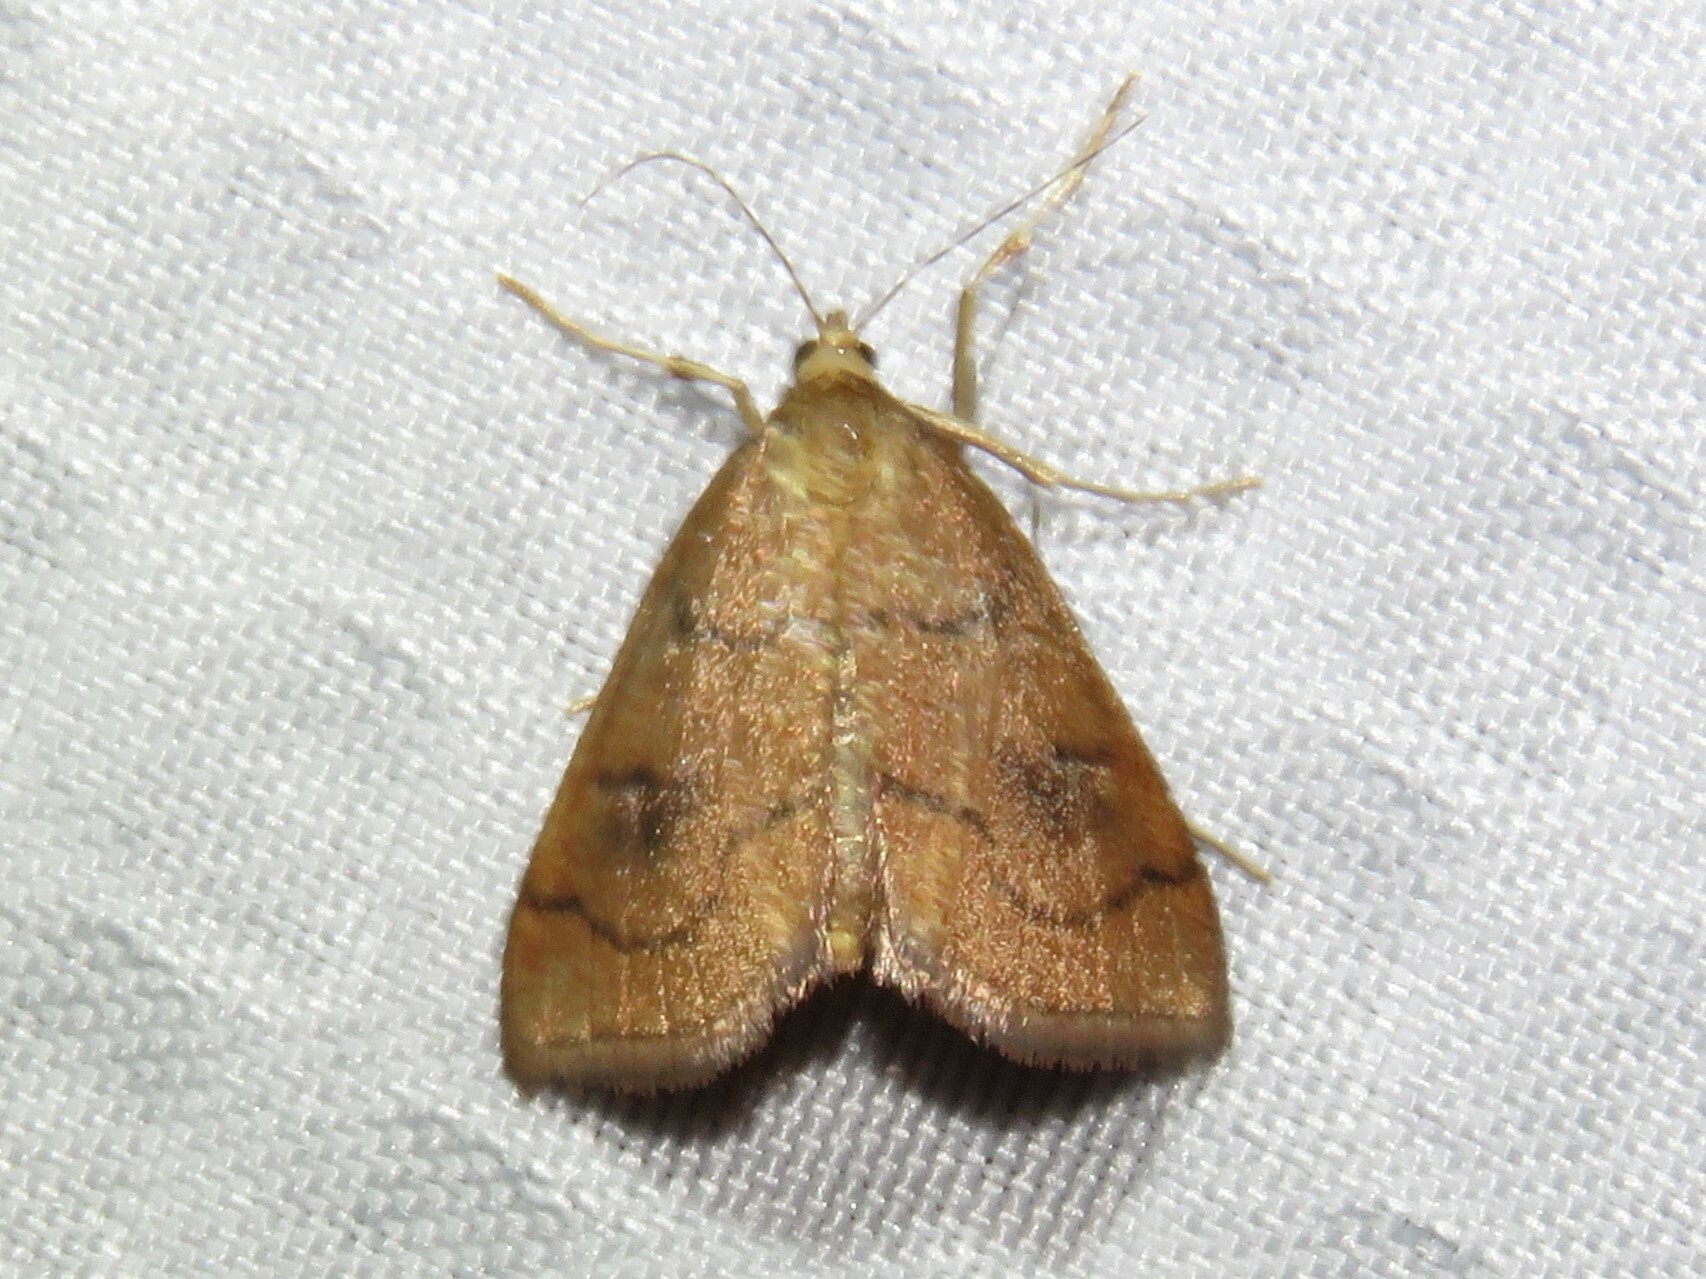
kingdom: Animalia
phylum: Arthropoda
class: Insecta
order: Lepidoptera
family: Crambidae
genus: Fumibotys
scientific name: Fumibotys fumalis
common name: Mint root borer moth
